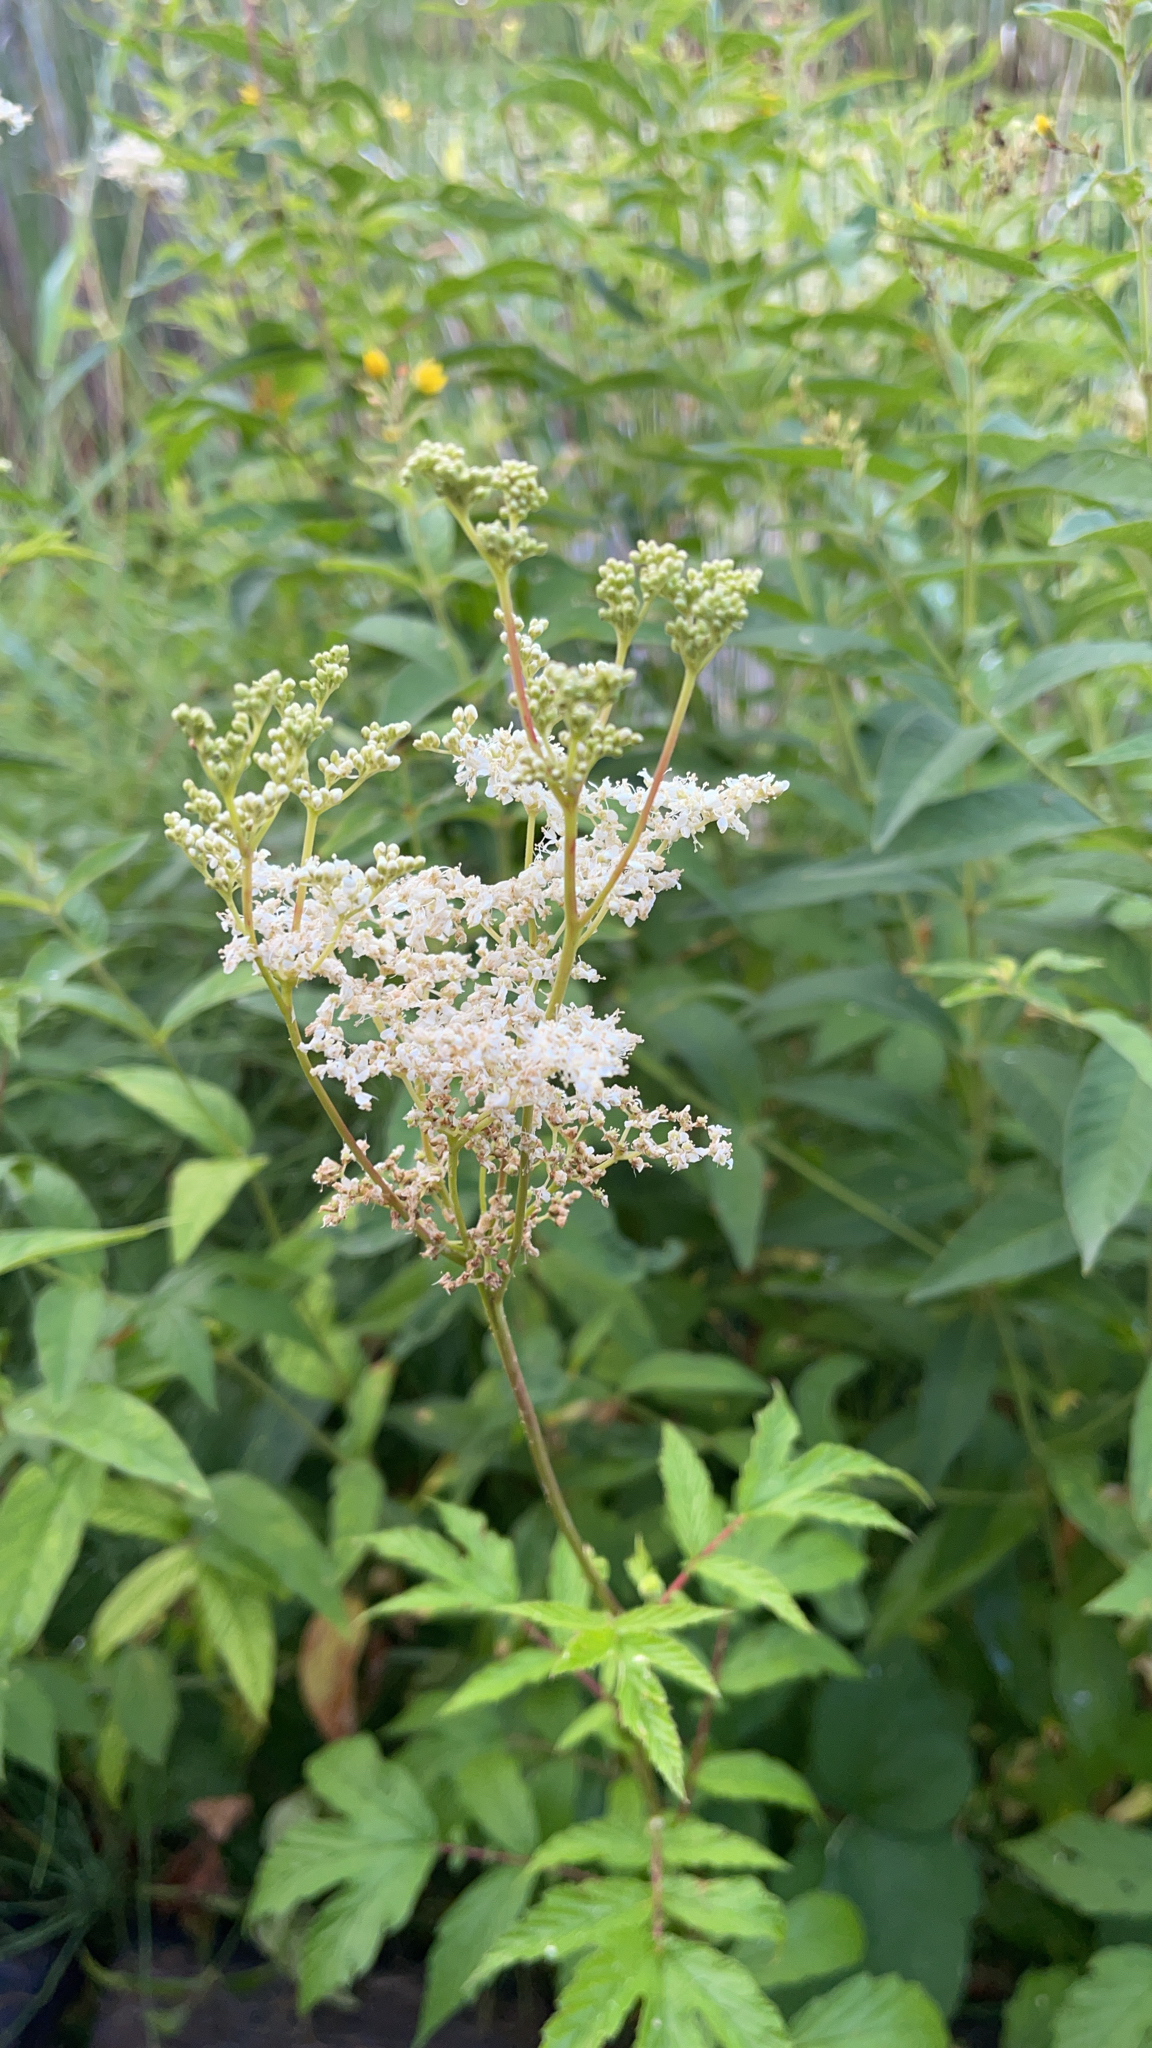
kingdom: Plantae
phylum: Tracheophyta
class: Magnoliopsida
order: Rosales
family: Rosaceae
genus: Filipendula
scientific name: Filipendula ulmaria
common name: Meadowsweet
